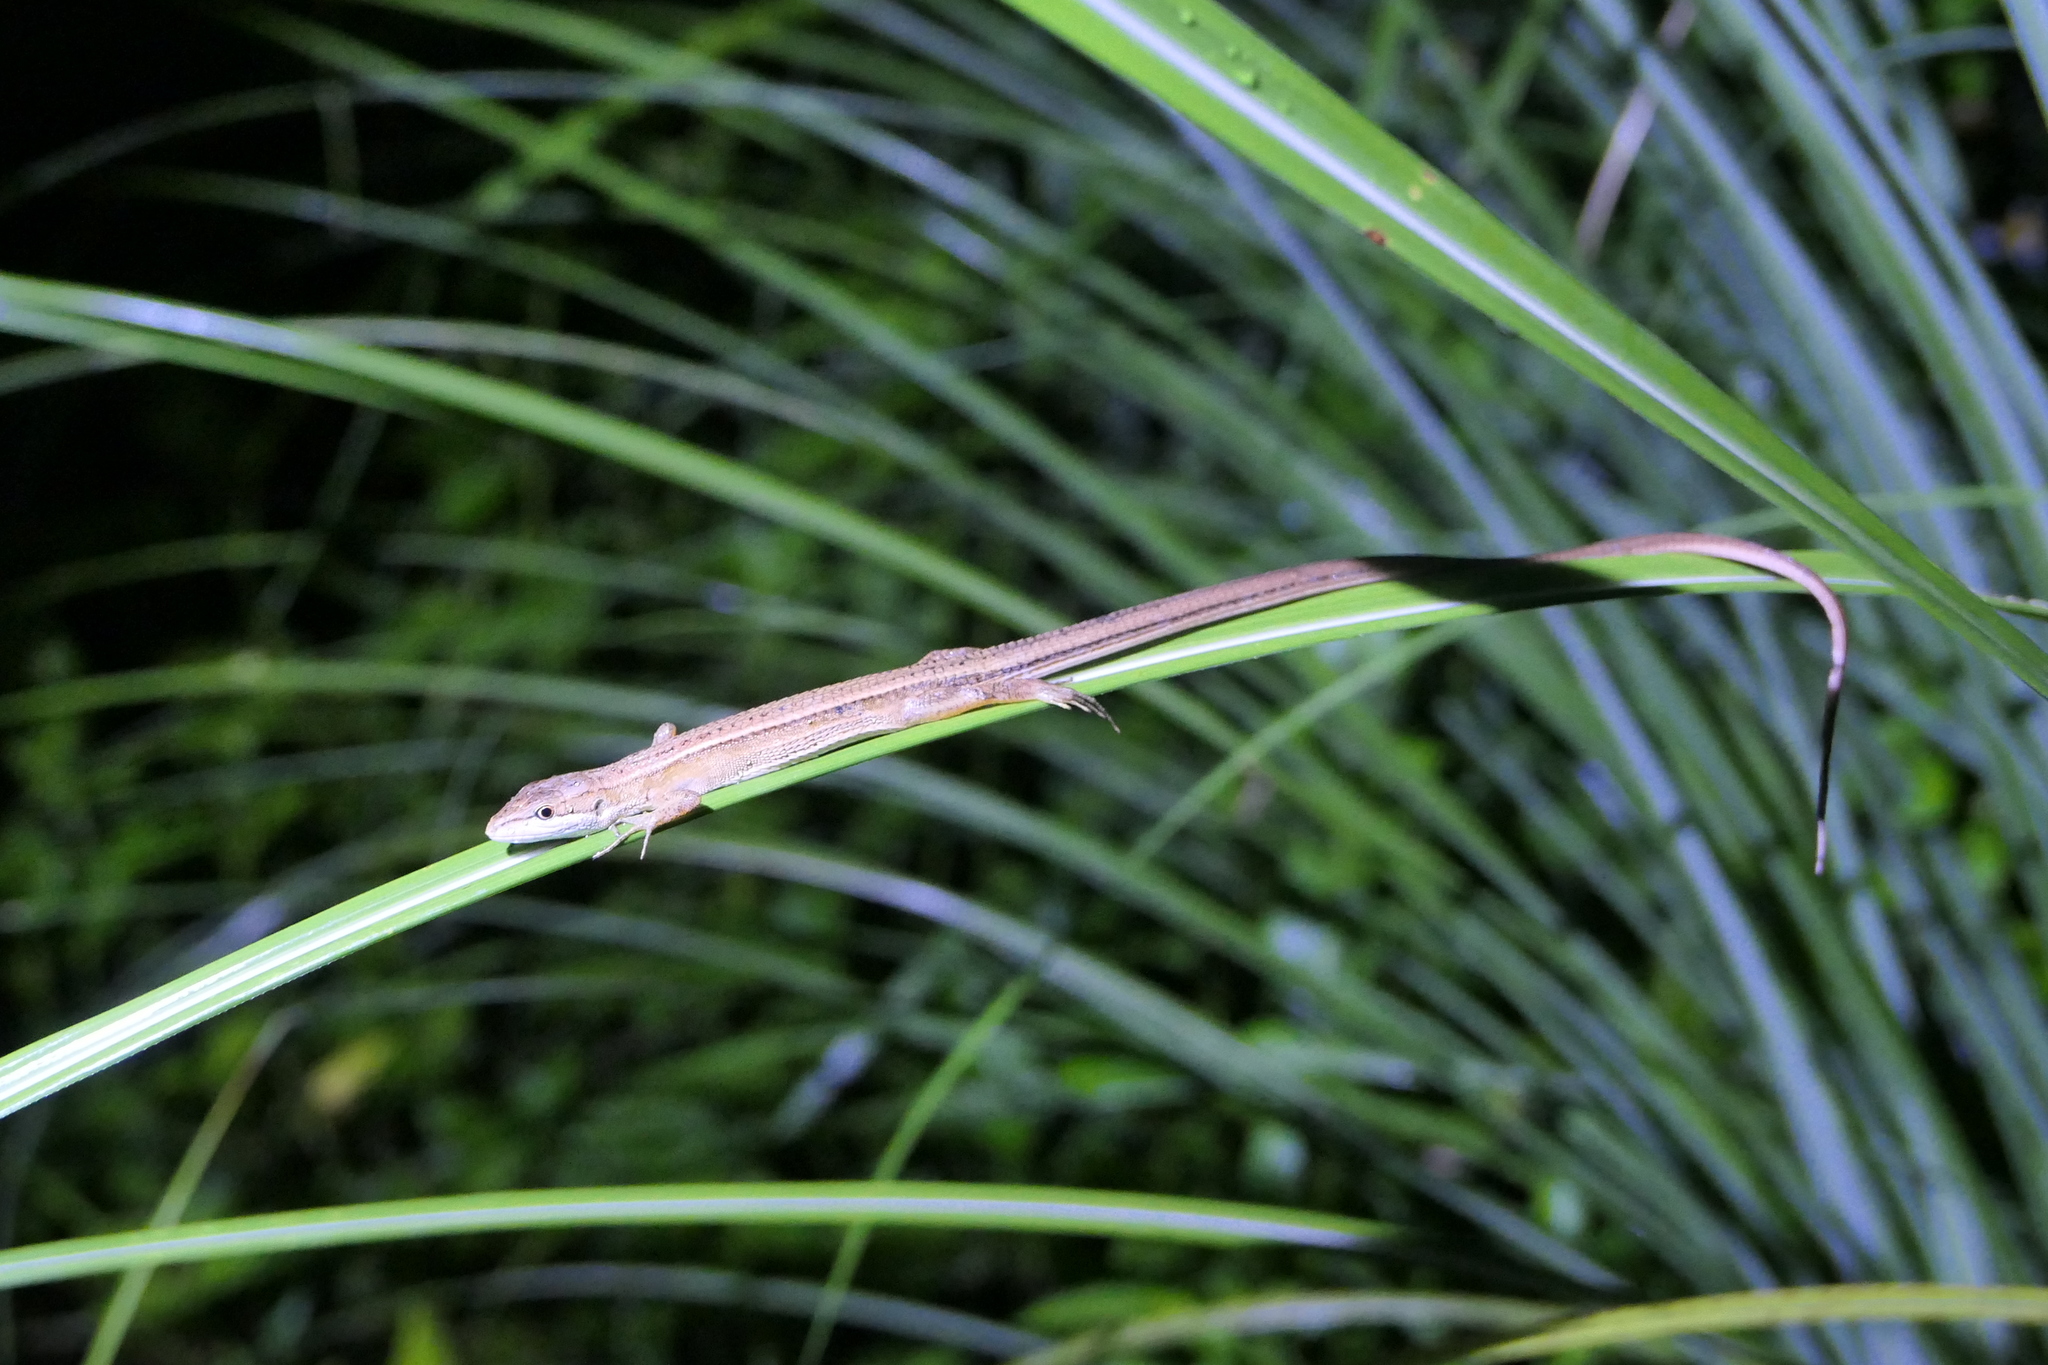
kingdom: Animalia
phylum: Chordata
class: Squamata
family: Lacertidae
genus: Takydromus
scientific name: Takydromus kuehnei
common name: Kuhne’s grass lizard
